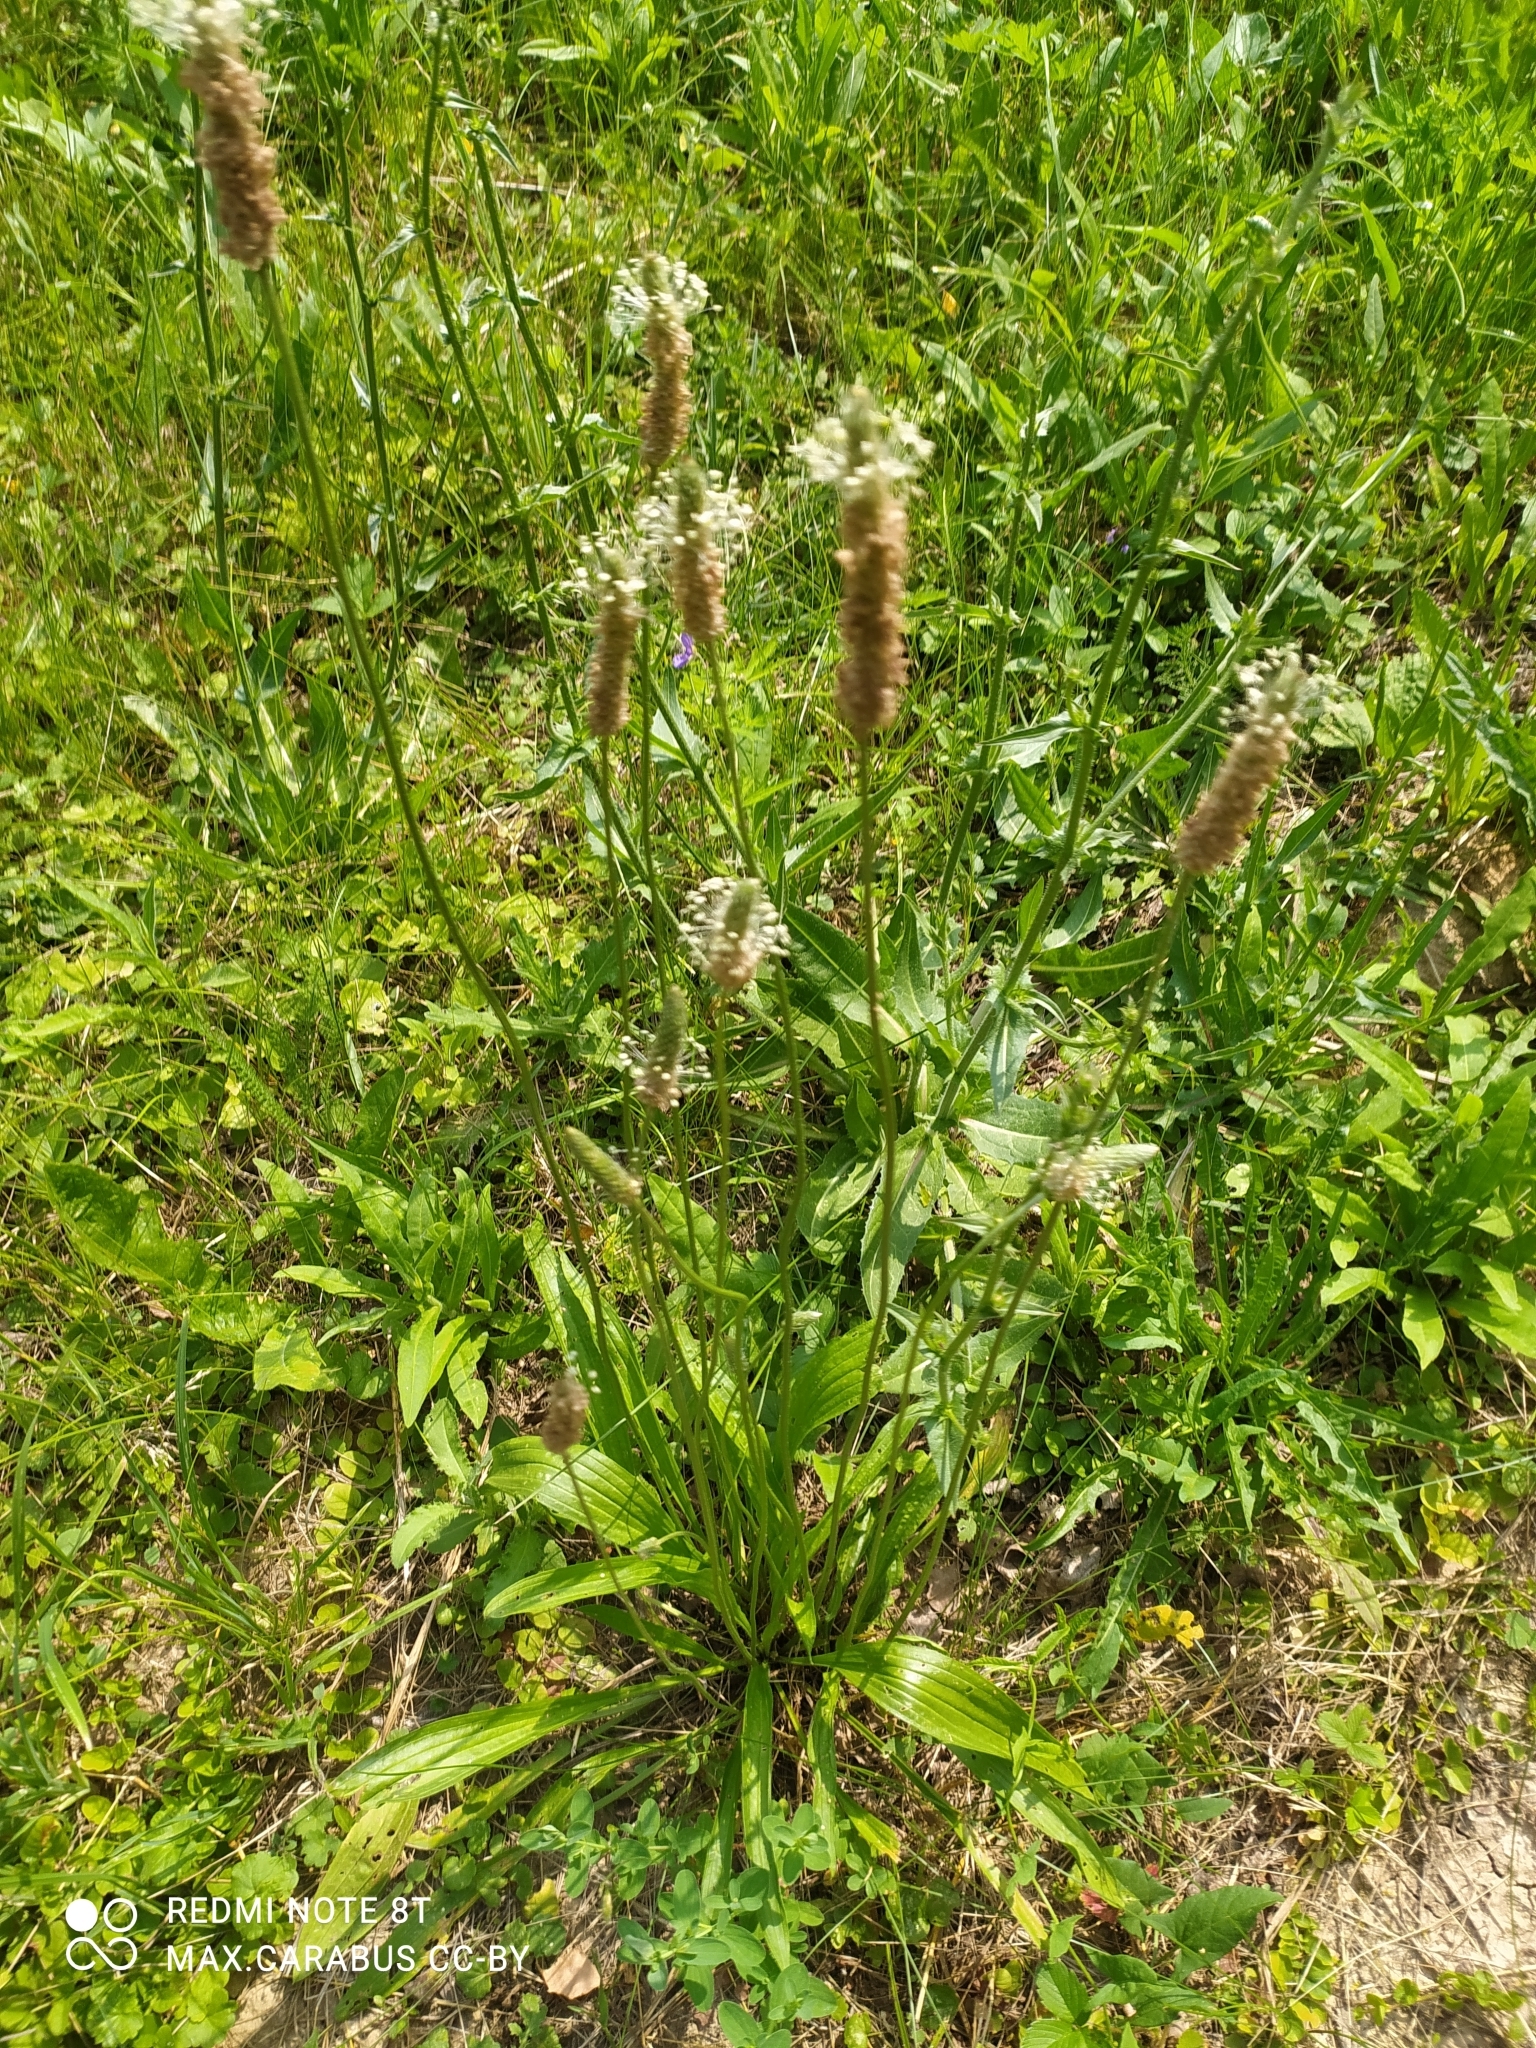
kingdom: Plantae
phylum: Tracheophyta
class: Magnoliopsida
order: Lamiales
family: Plantaginaceae
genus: Plantago
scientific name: Plantago lanceolata
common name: Ribwort plantain
